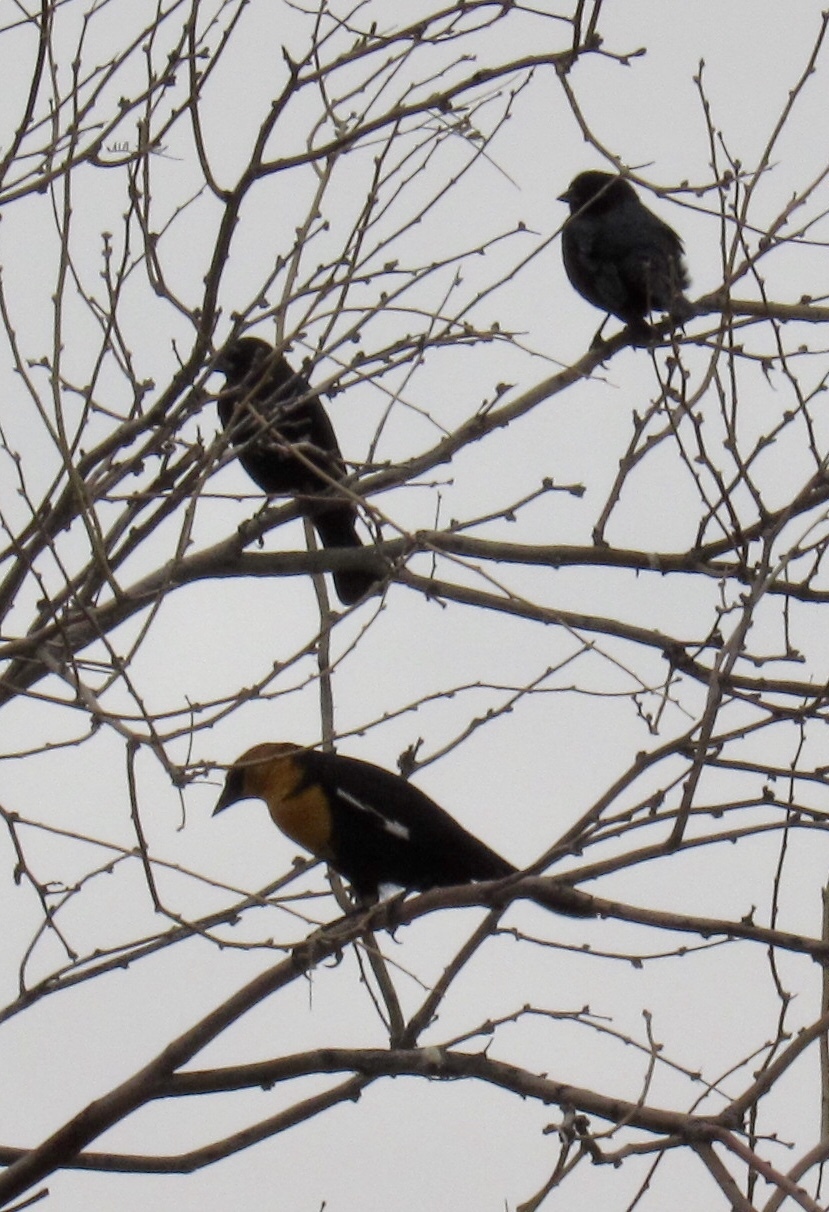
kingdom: Animalia
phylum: Chordata
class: Aves
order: Passeriformes
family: Icteridae
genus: Xanthocephalus
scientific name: Xanthocephalus xanthocephalus
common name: Yellow-headed blackbird
